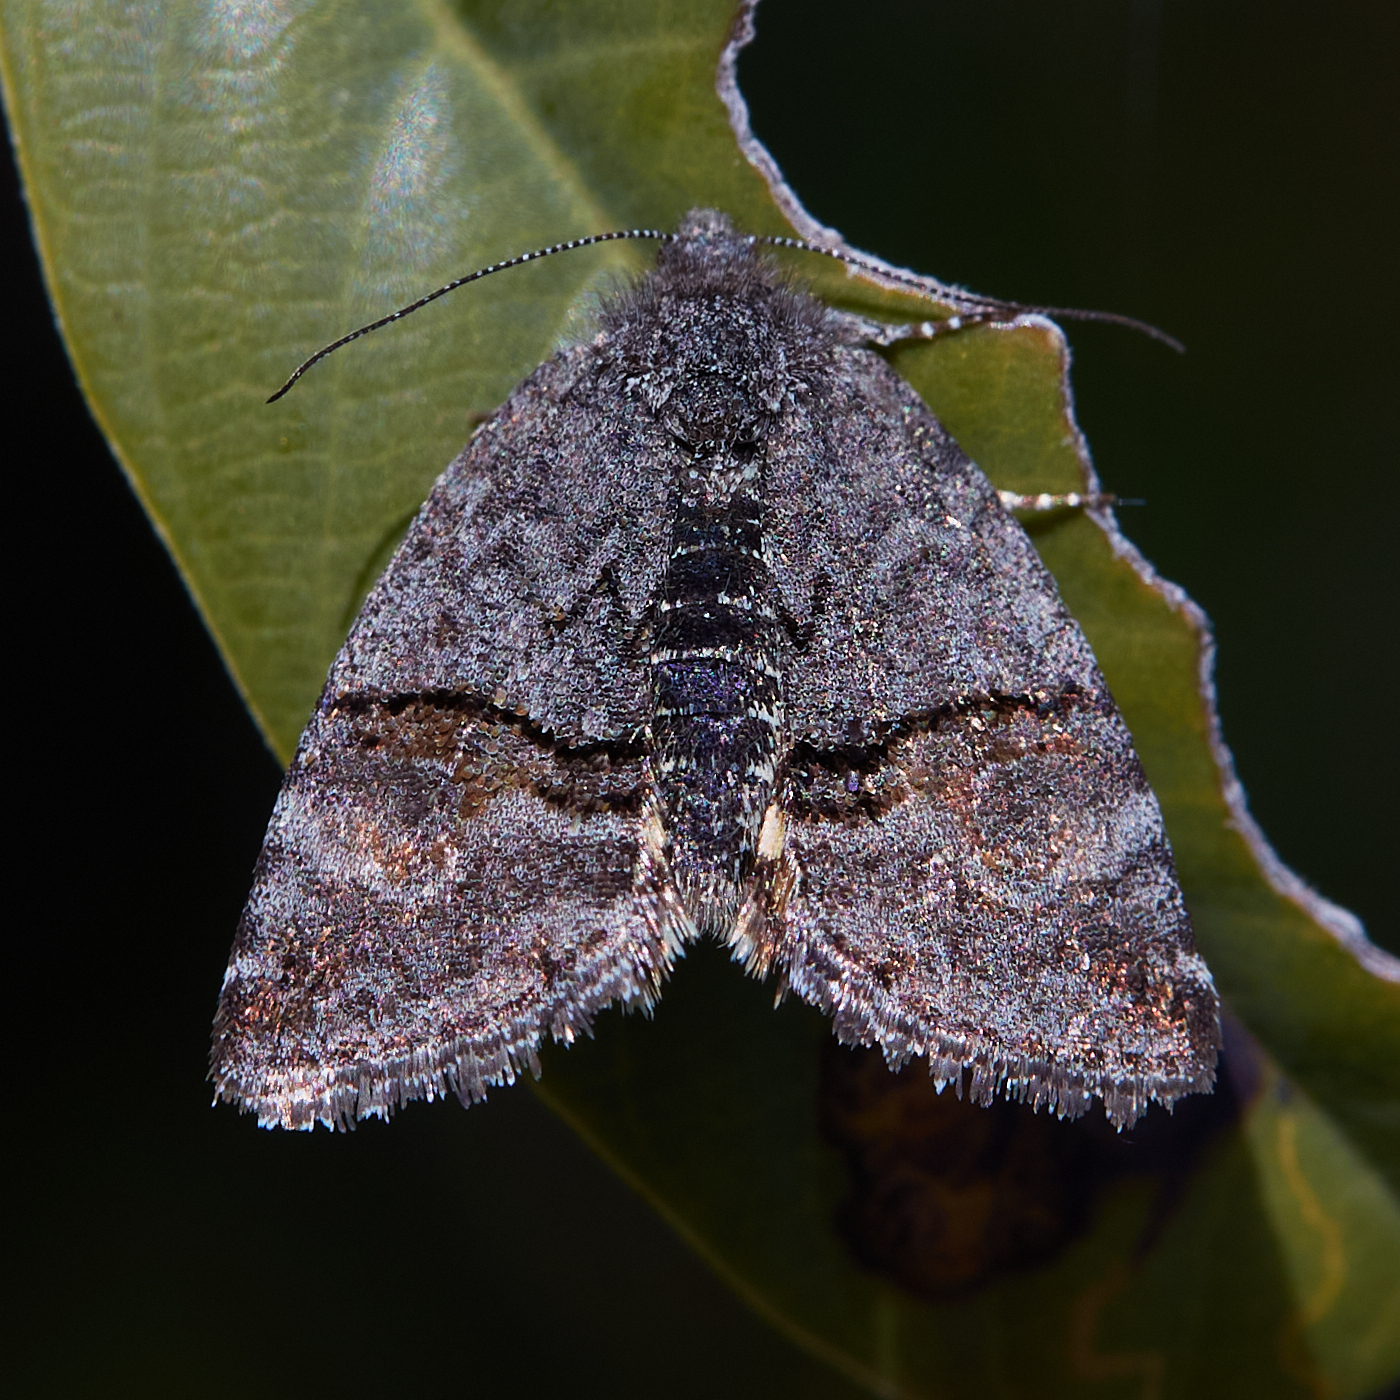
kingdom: Animalia
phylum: Arthropoda
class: Insecta
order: Lepidoptera
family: Noctuidae
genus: Annaphila
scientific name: Annaphila depicta
